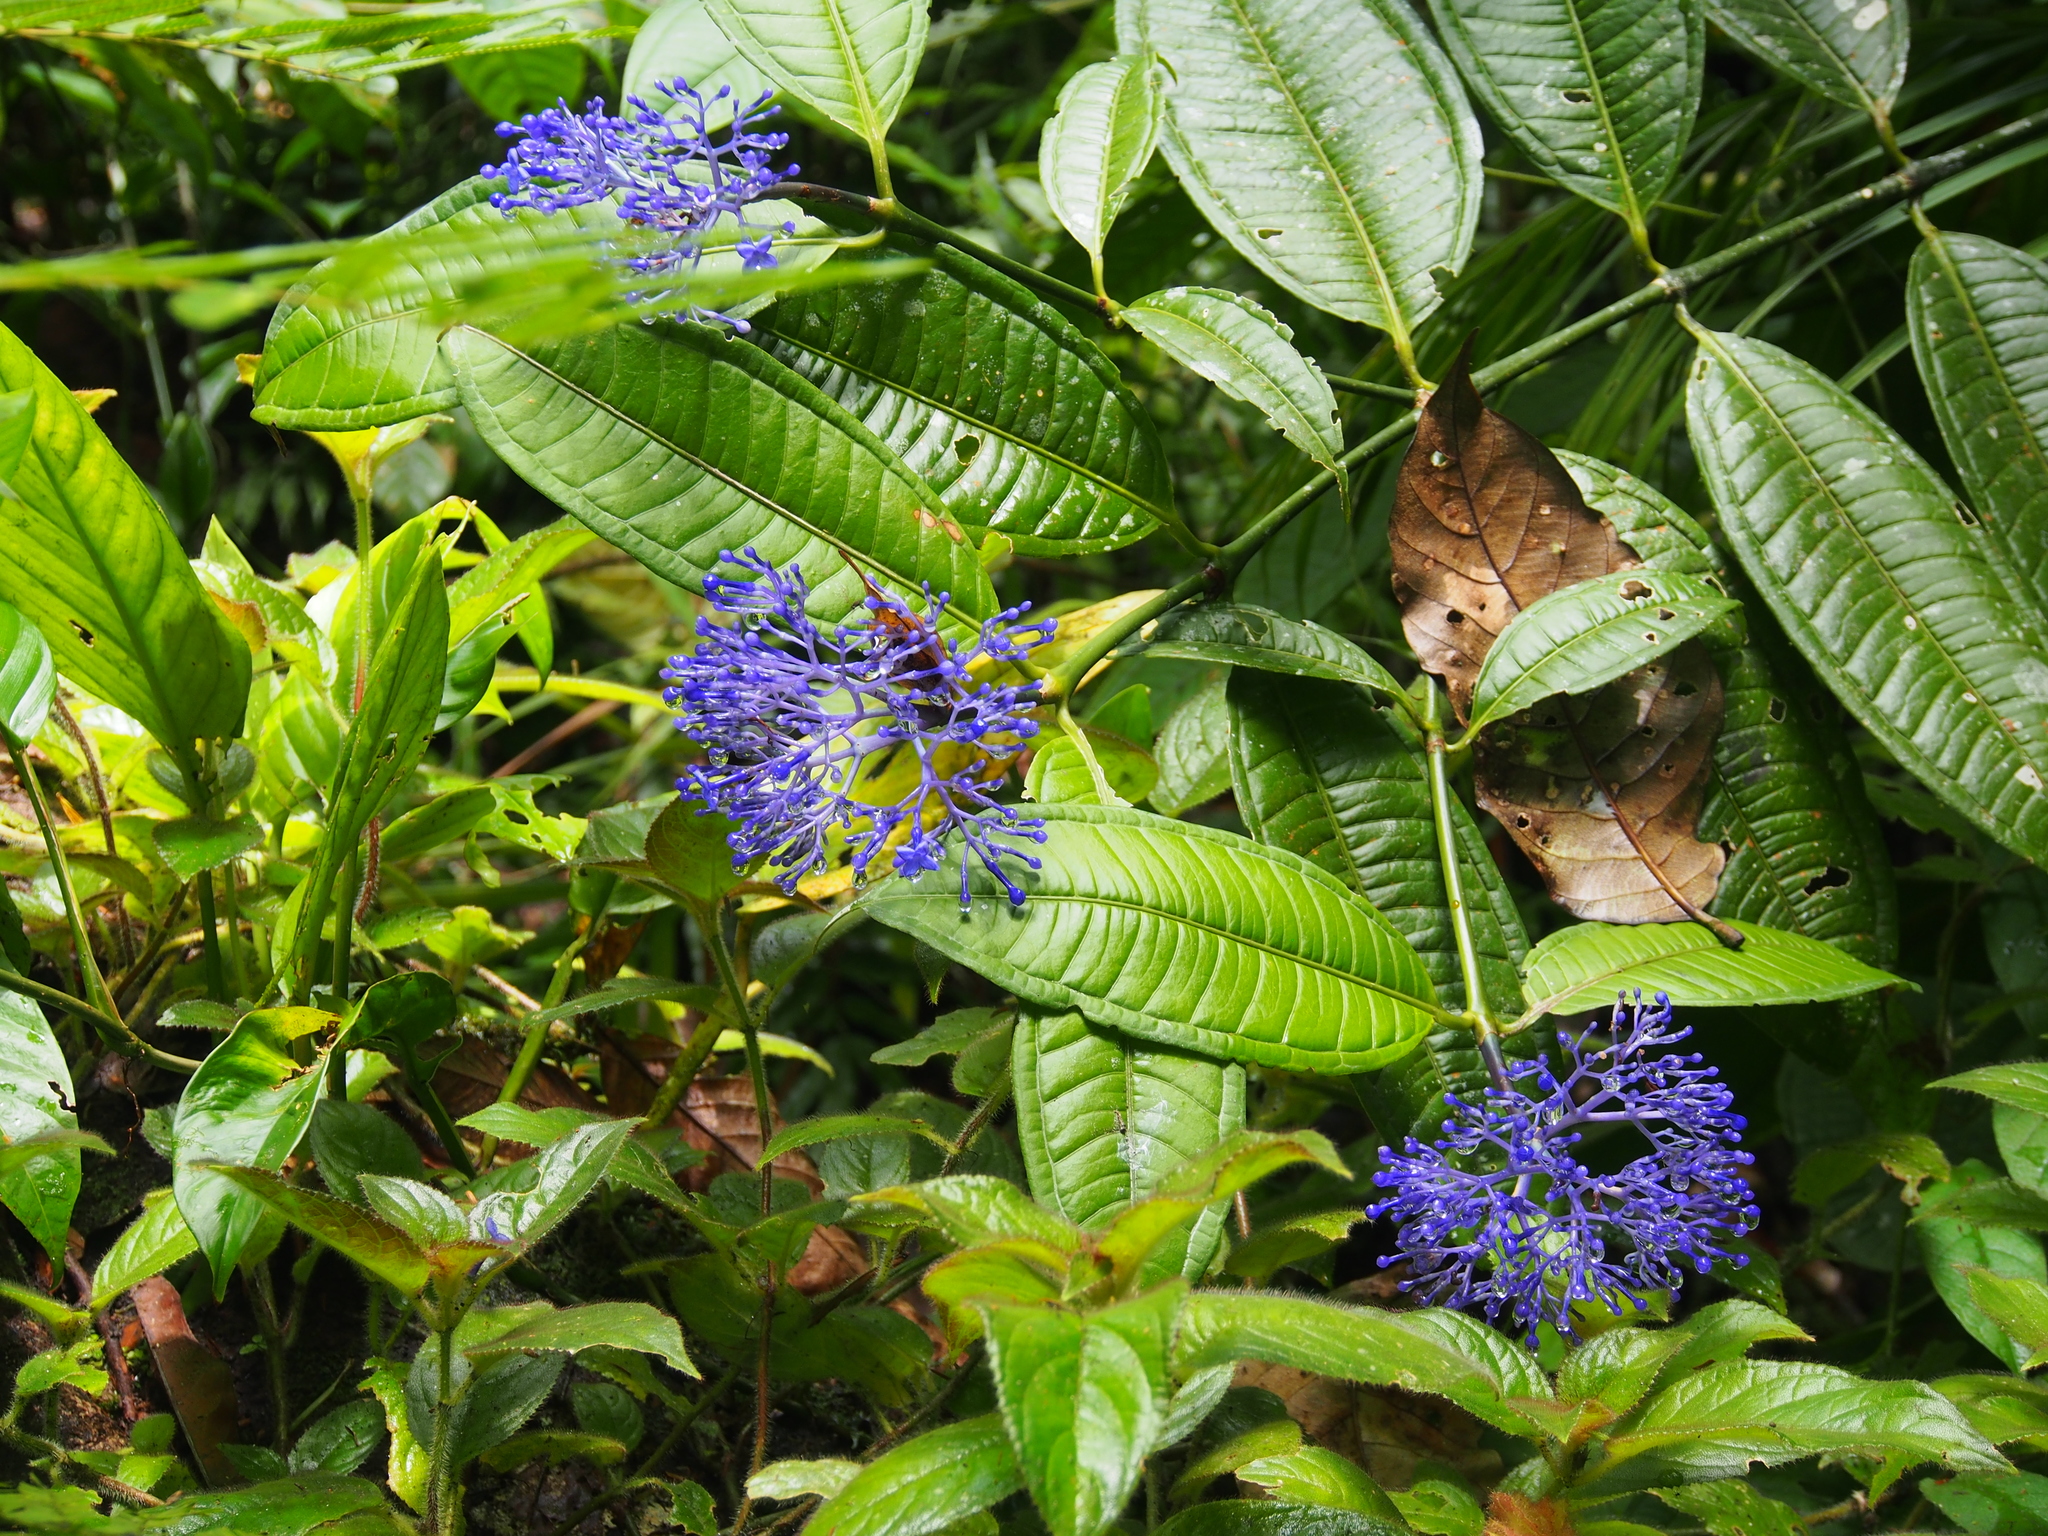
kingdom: Plantae
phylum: Tracheophyta
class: Magnoliopsida
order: Gentianales
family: Rubiaceae
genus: Faramea
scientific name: Faramea suerrensis
